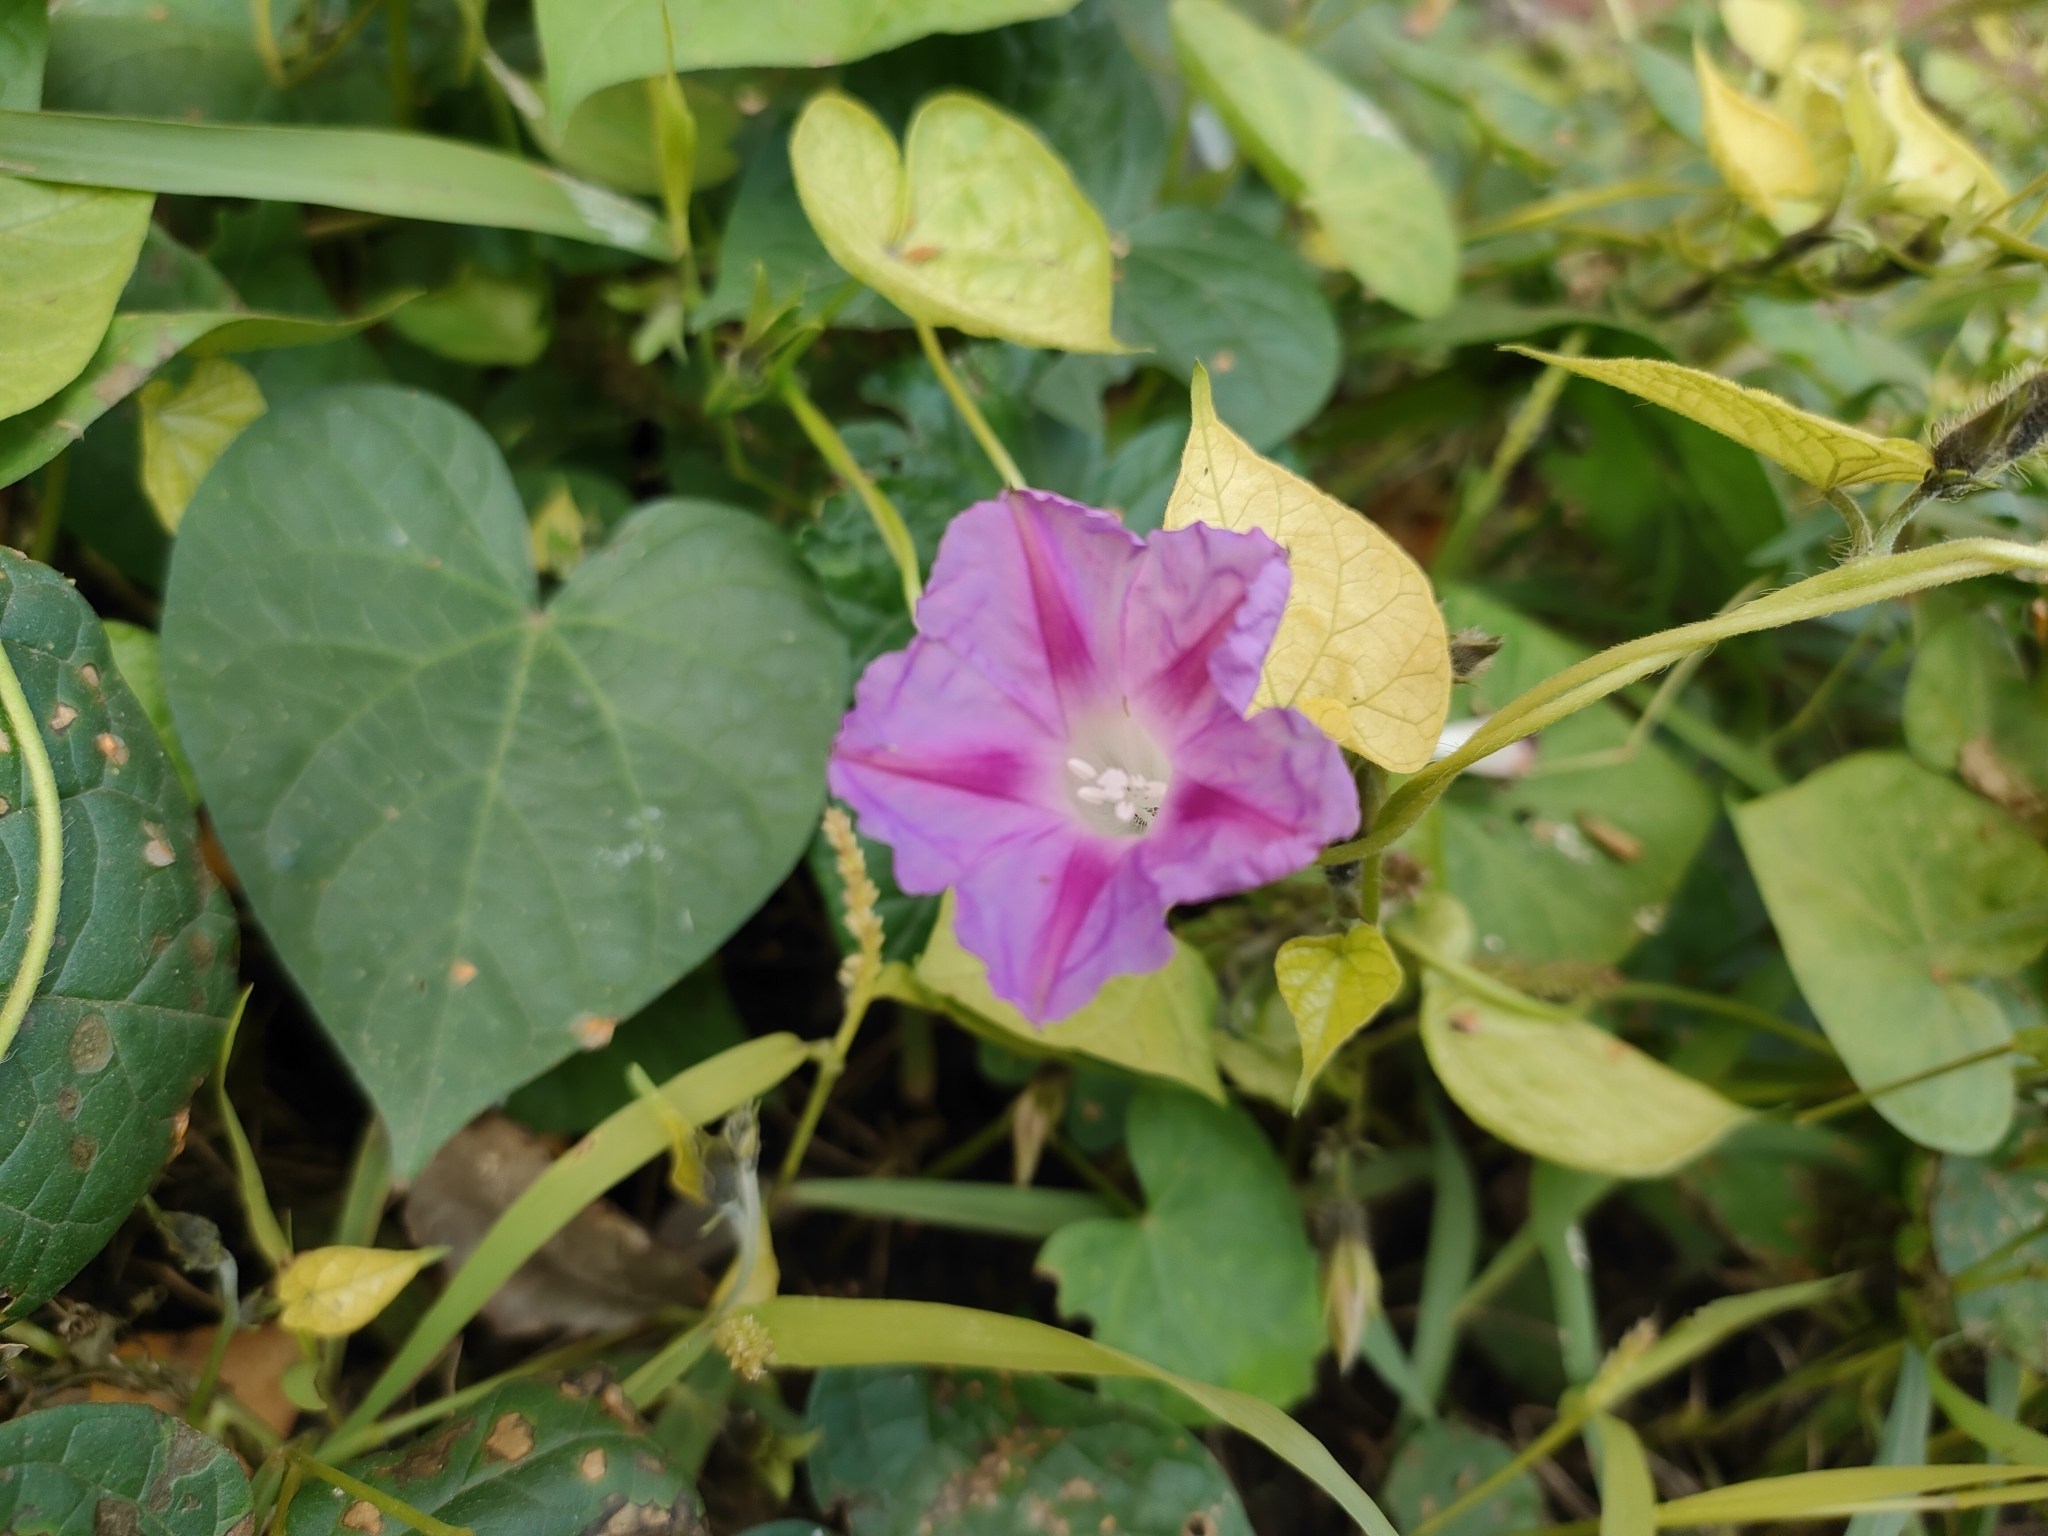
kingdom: Plantae
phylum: Tracheophyta
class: Magnoliopsida
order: Solanales
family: Convolvulaceae
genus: Ipomoea
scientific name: Ipomoea purpurea
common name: Common morning-glory
